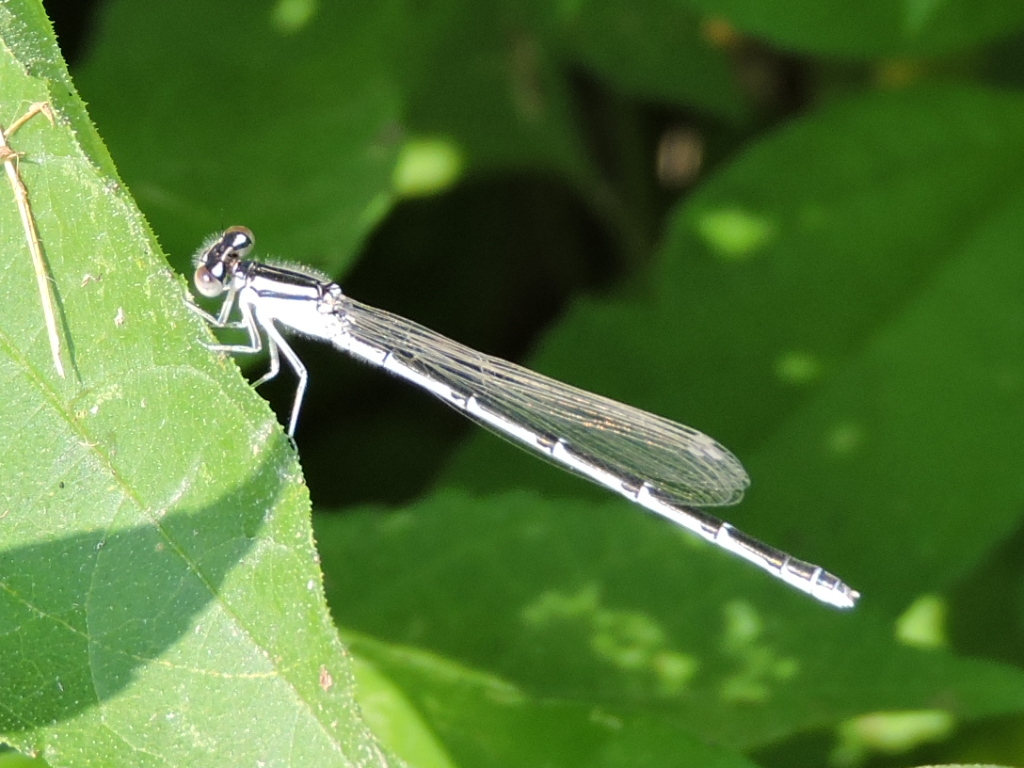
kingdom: Animalia
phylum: Arthropoda
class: Insecta
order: Odonata
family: Coenagrionidae
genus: Enallagma
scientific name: Enallagma civile
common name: Damselfly
